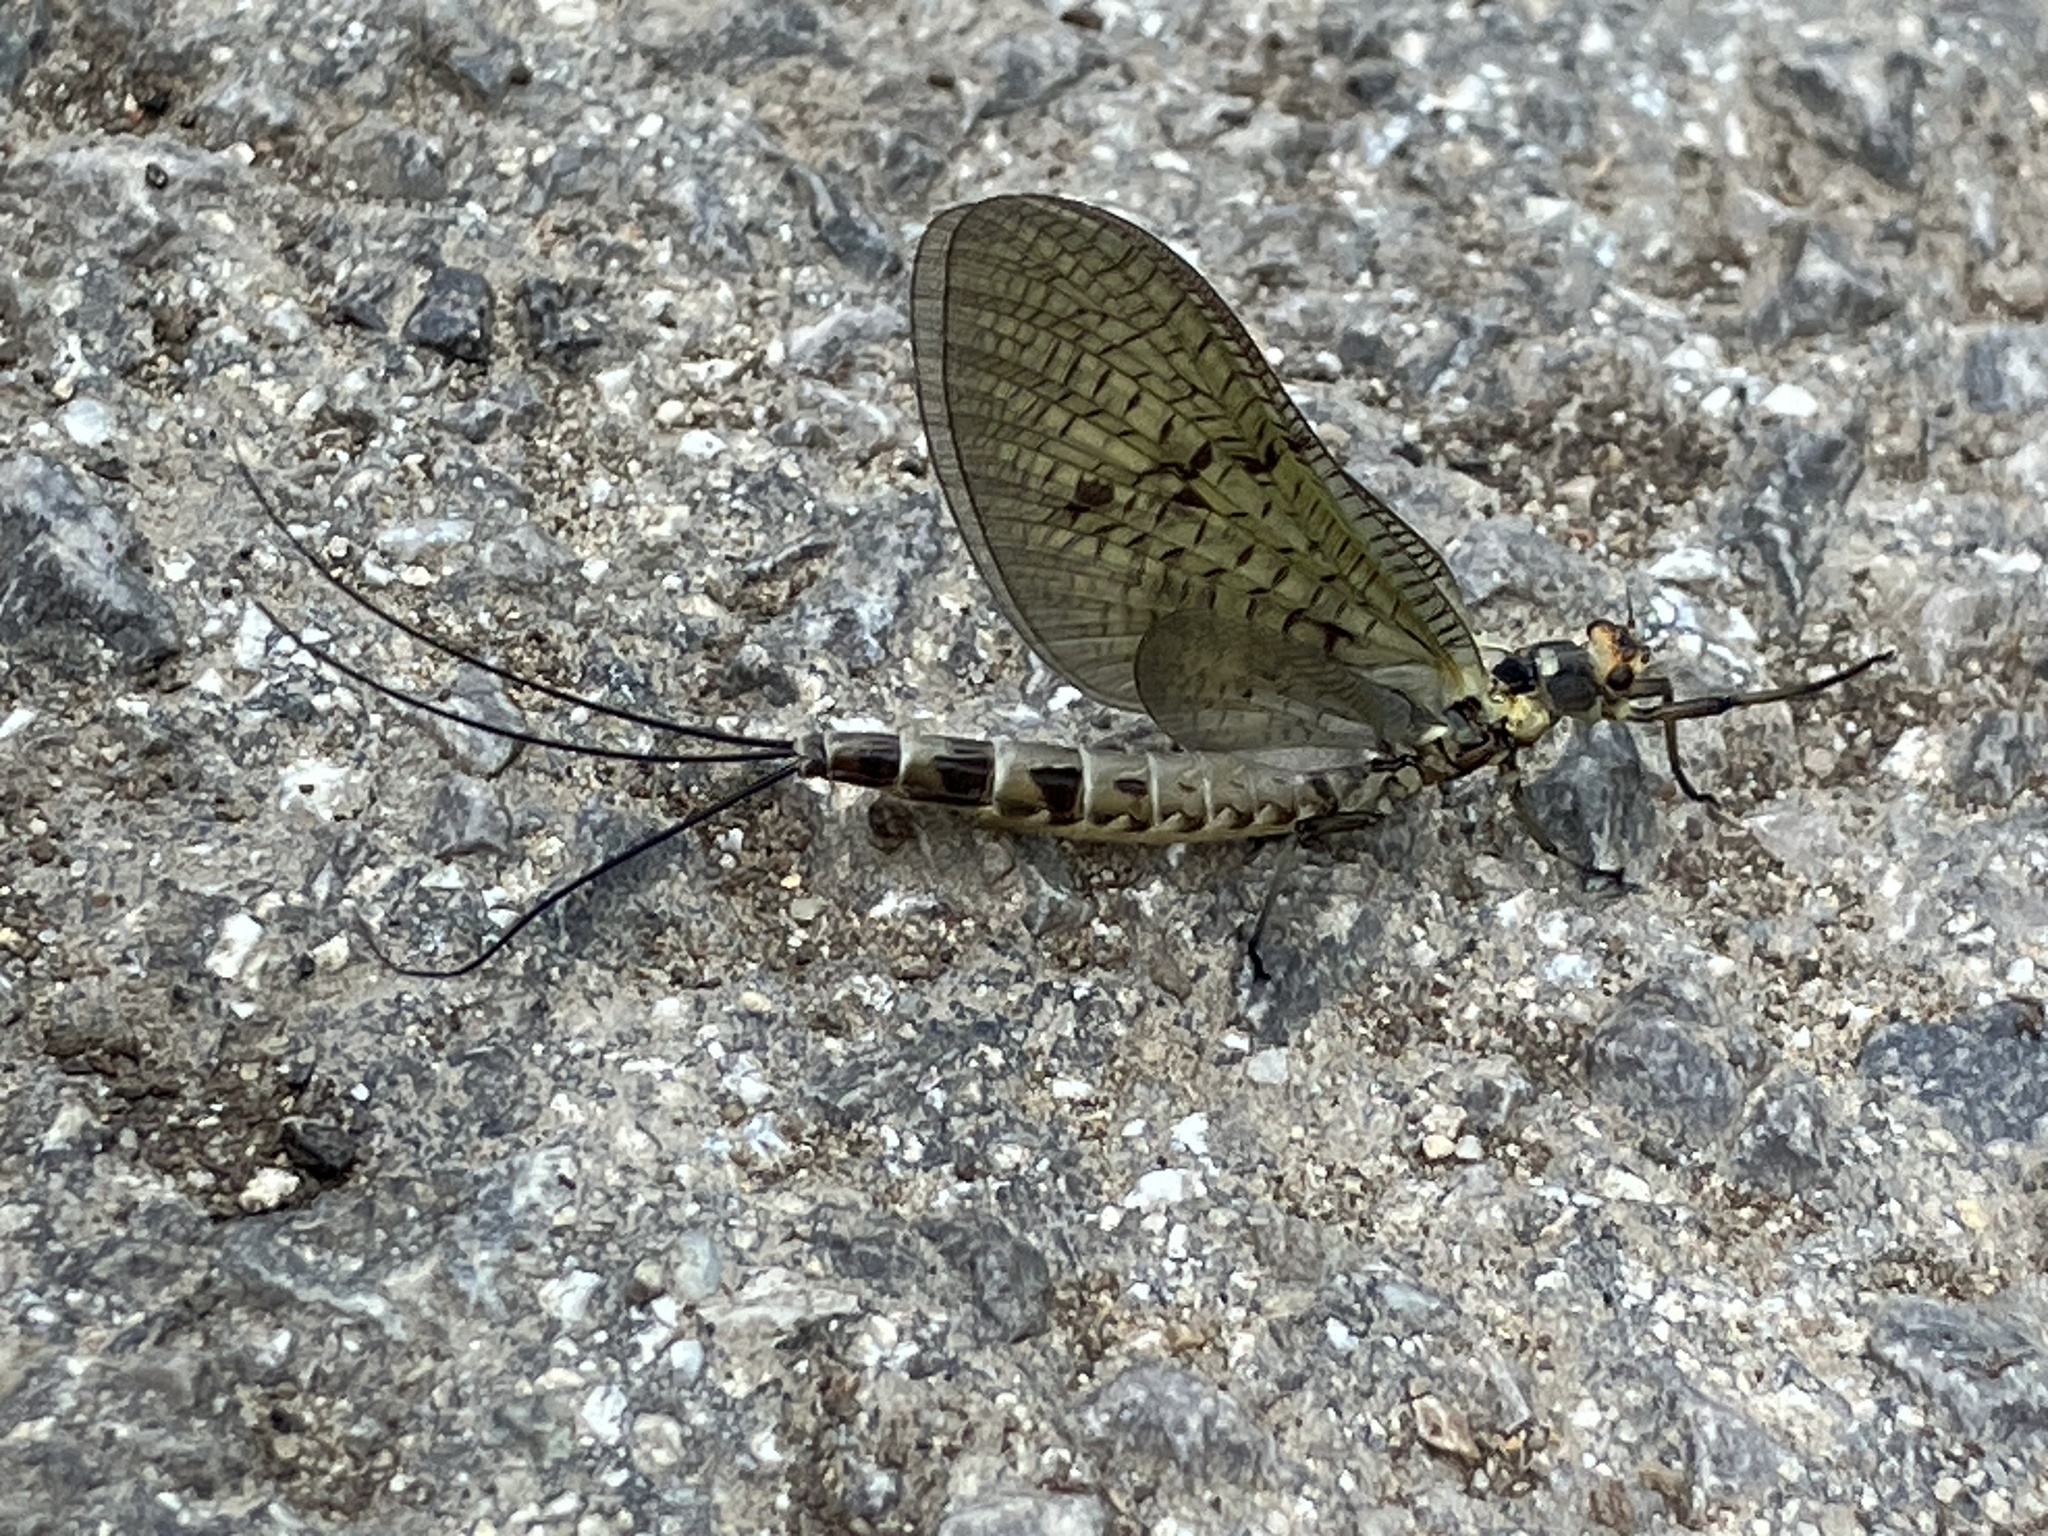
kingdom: Animalia
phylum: Arthropoda
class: Insecta
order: Ephemeroptera
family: Ephemeridae
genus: Ephemera
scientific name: Ephemera danica
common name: Green dun
